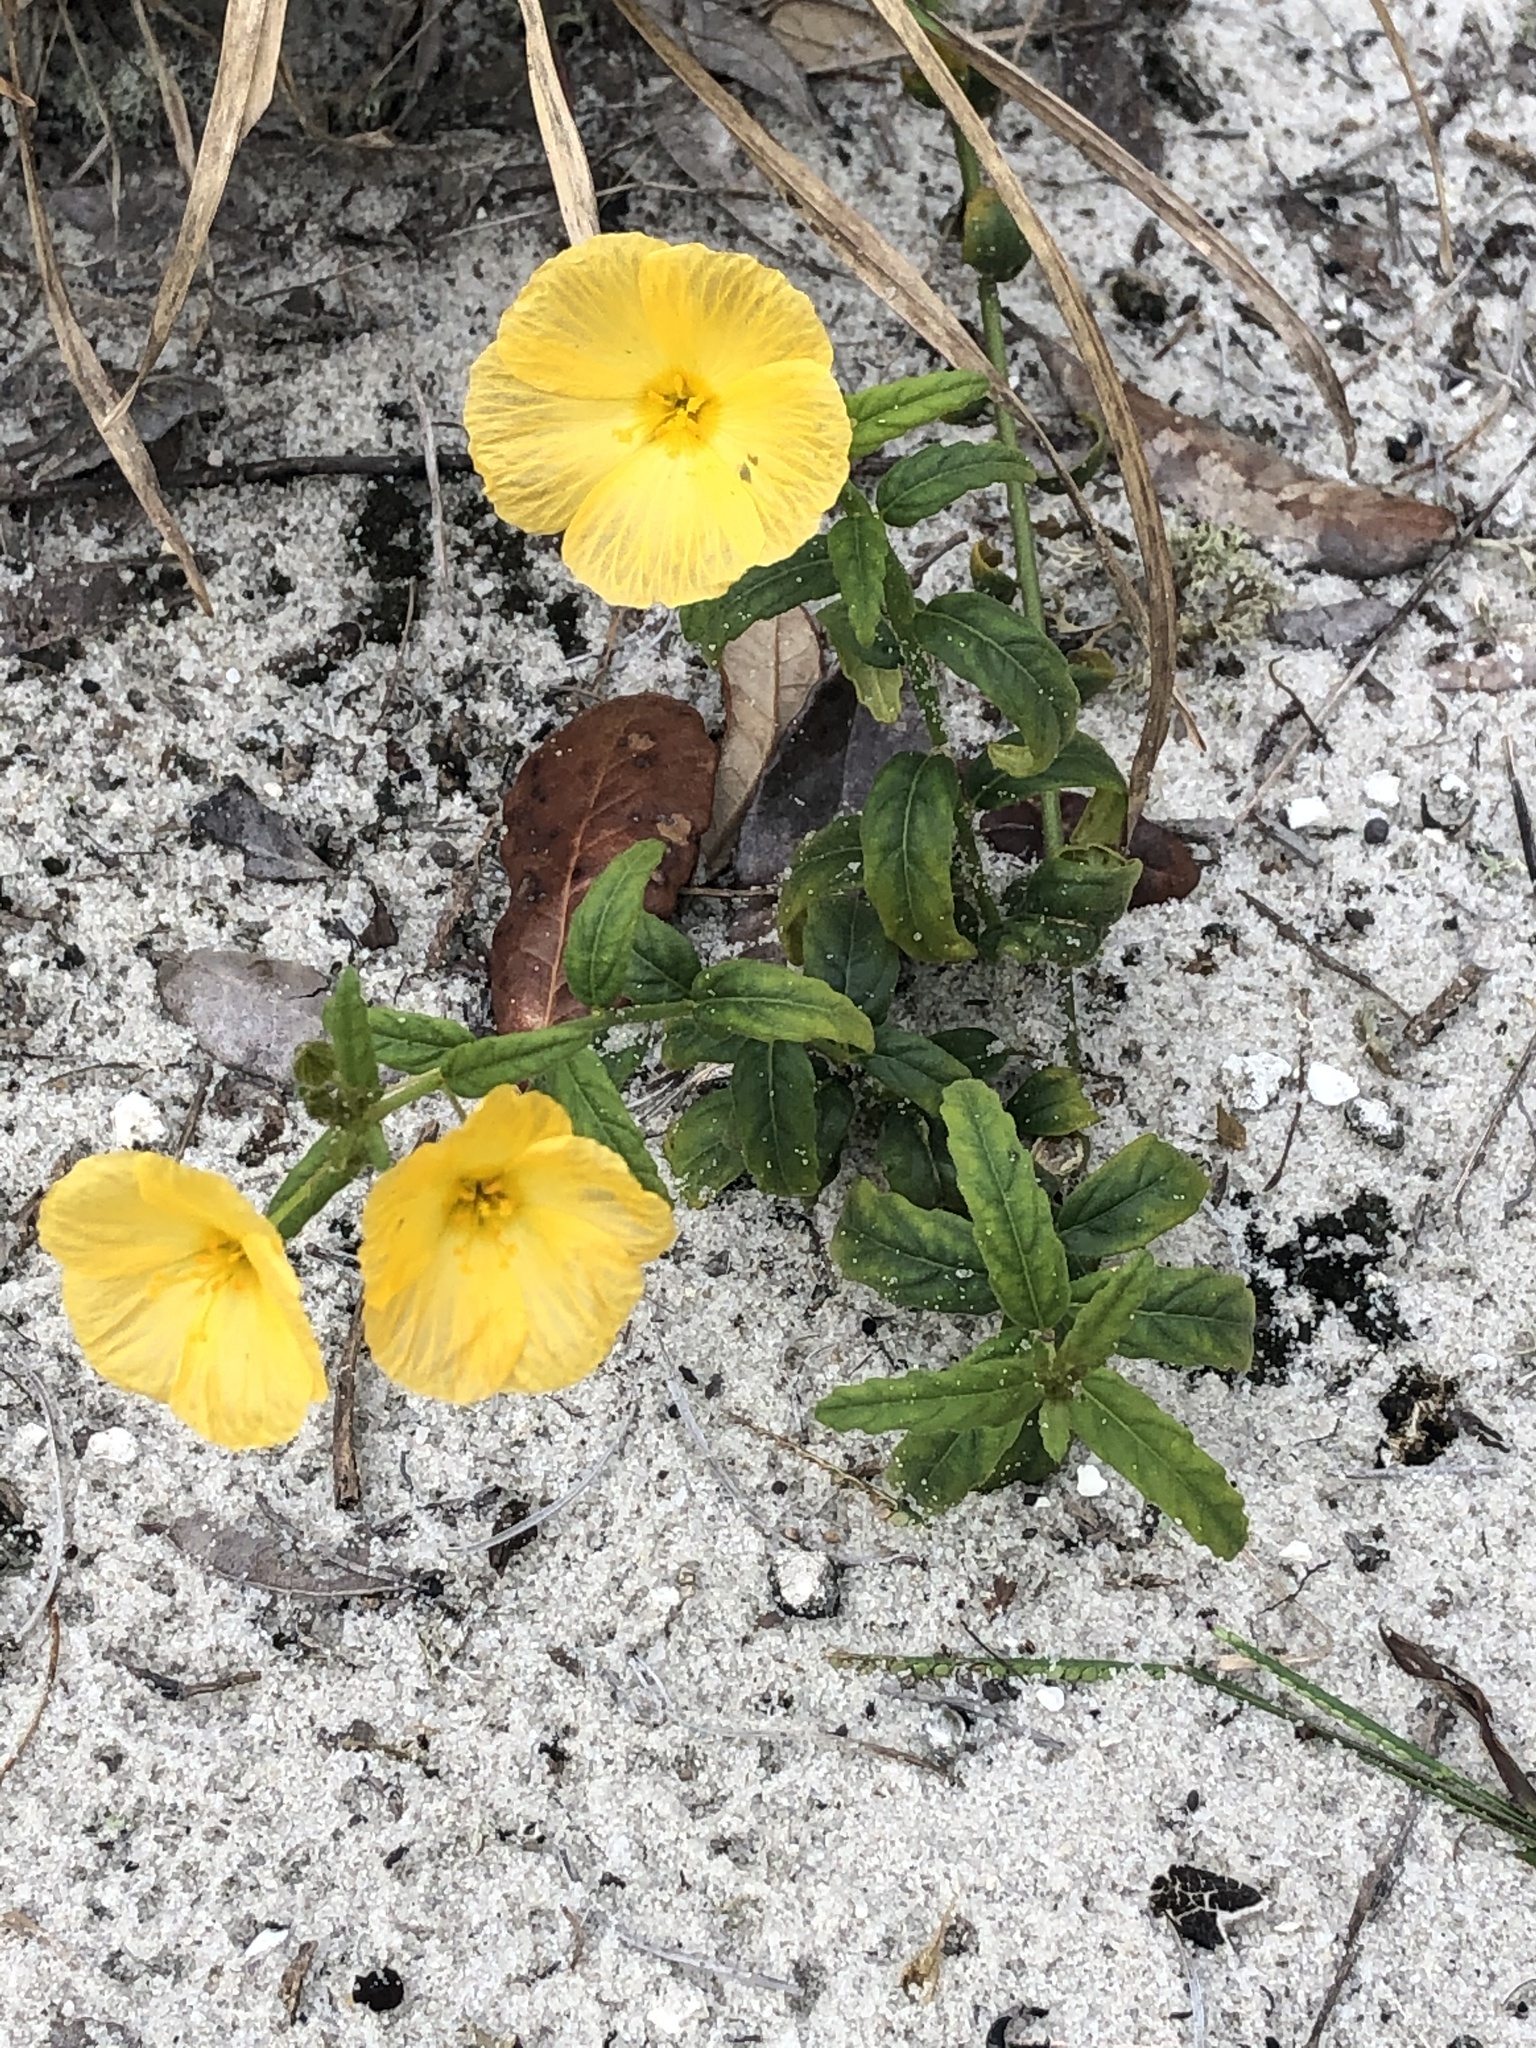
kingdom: Plantae
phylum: Tracheophyta
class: Magnoliopsida
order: Malpighiales
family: Turneraceae
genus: Piriqueta
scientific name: Piriqueta cistoides
